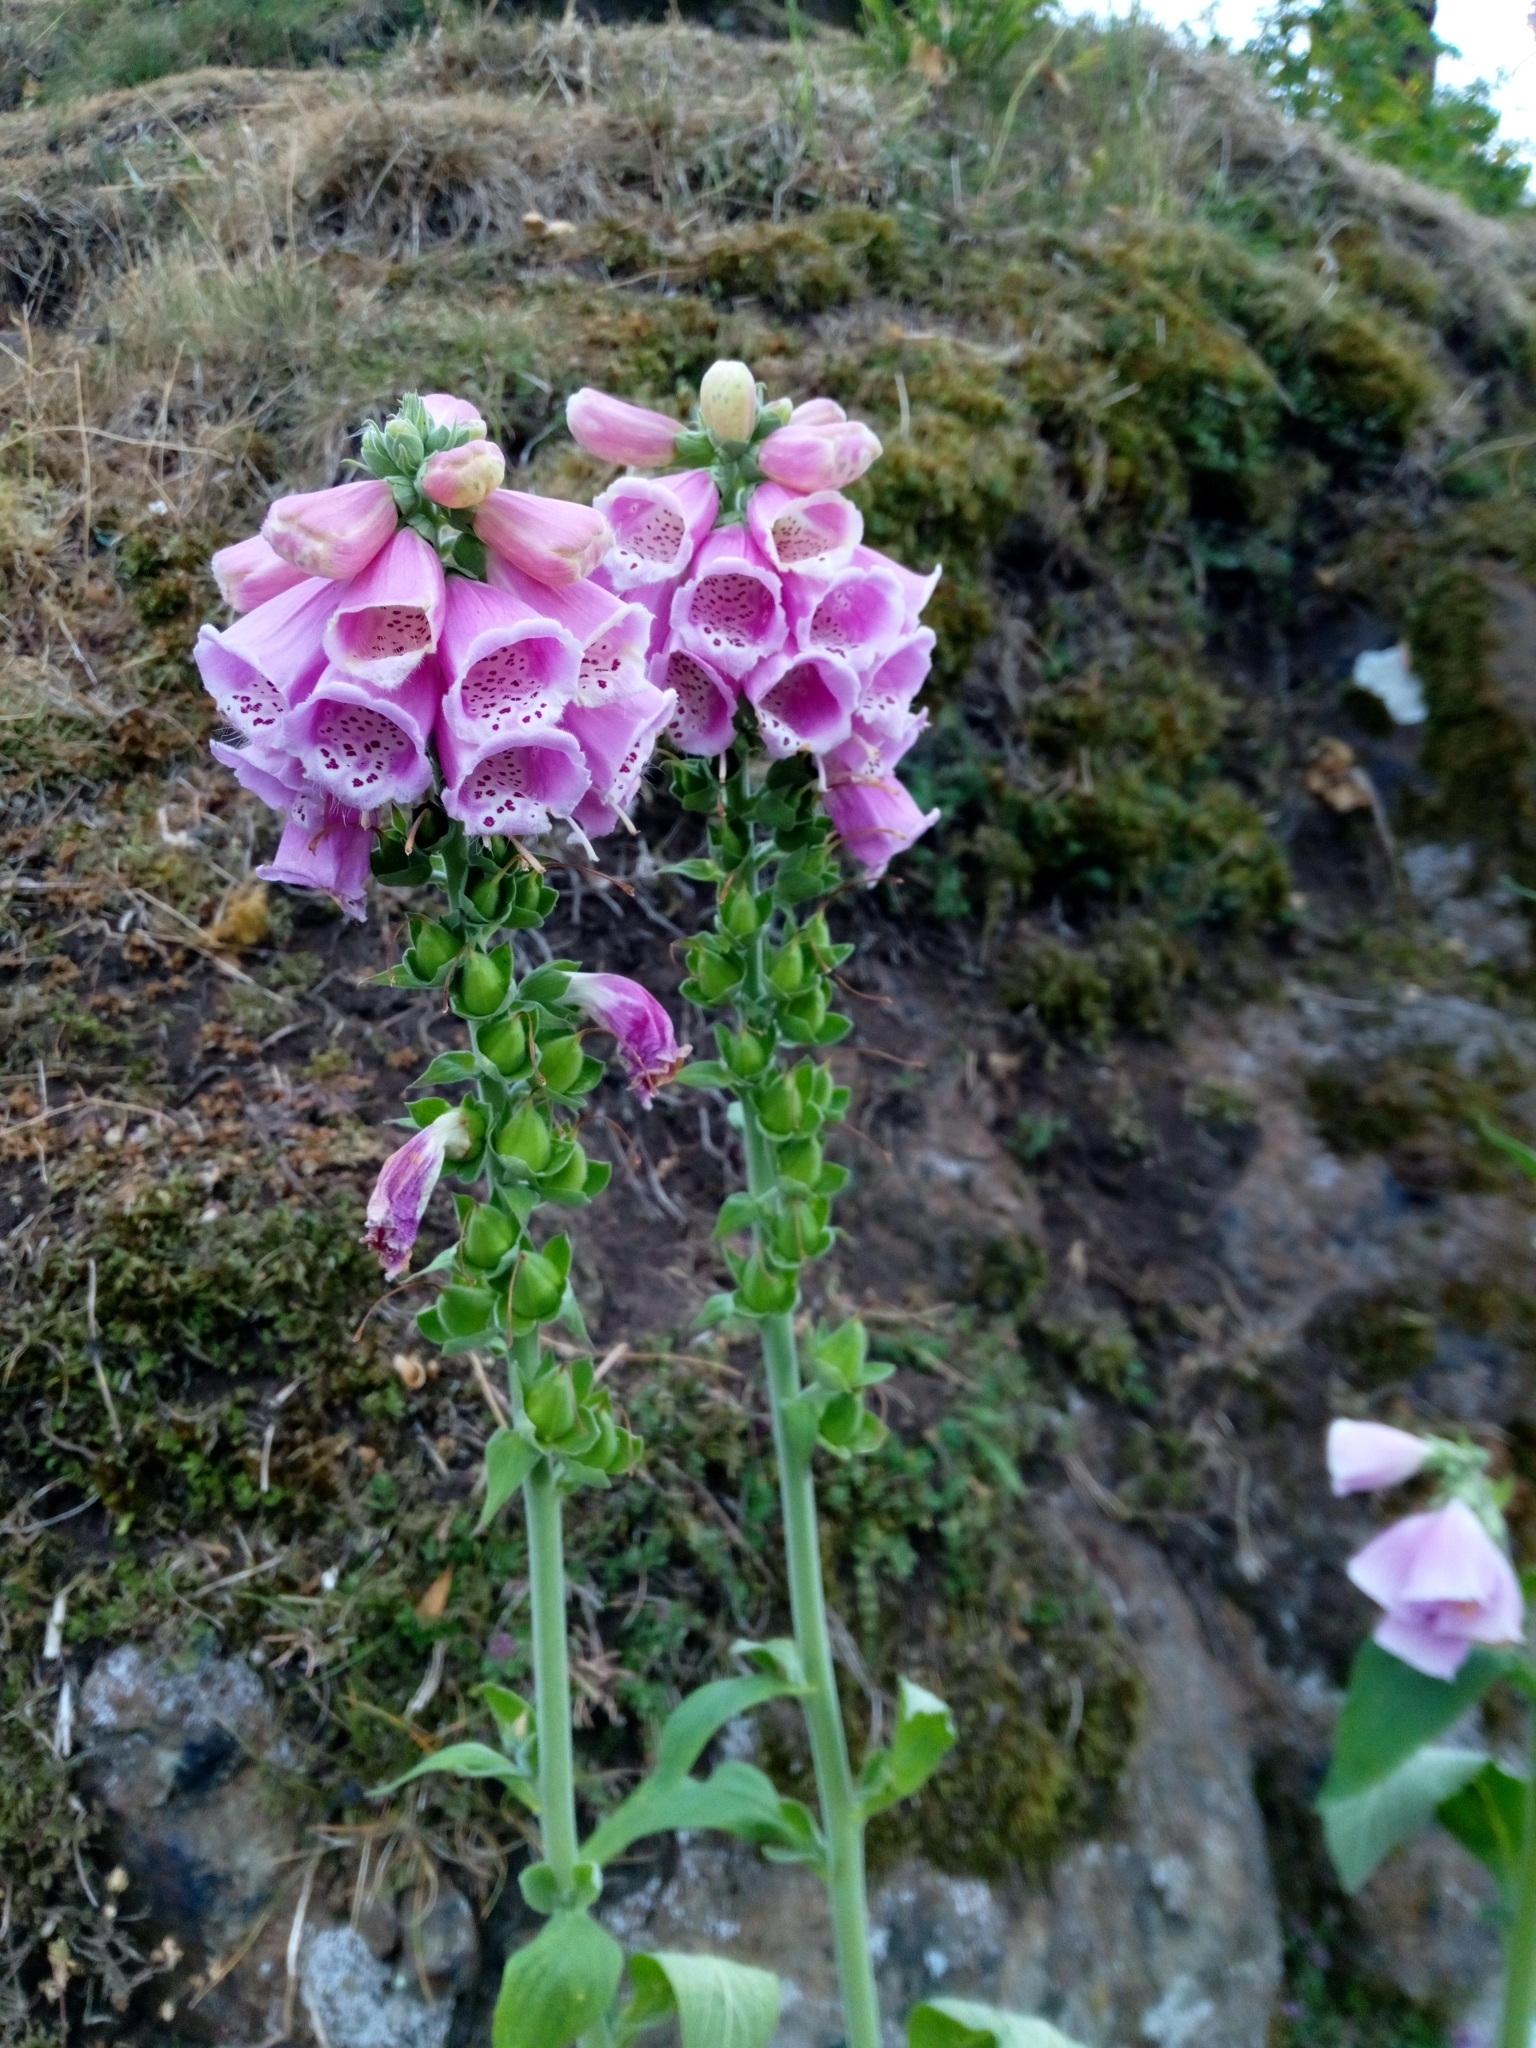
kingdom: Plantae
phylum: Tracheophyta
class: Magnoliopsida
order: Lamiales
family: Plantaginaceae
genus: Digitalis
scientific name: Digitalis purpurea
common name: Foxglove
